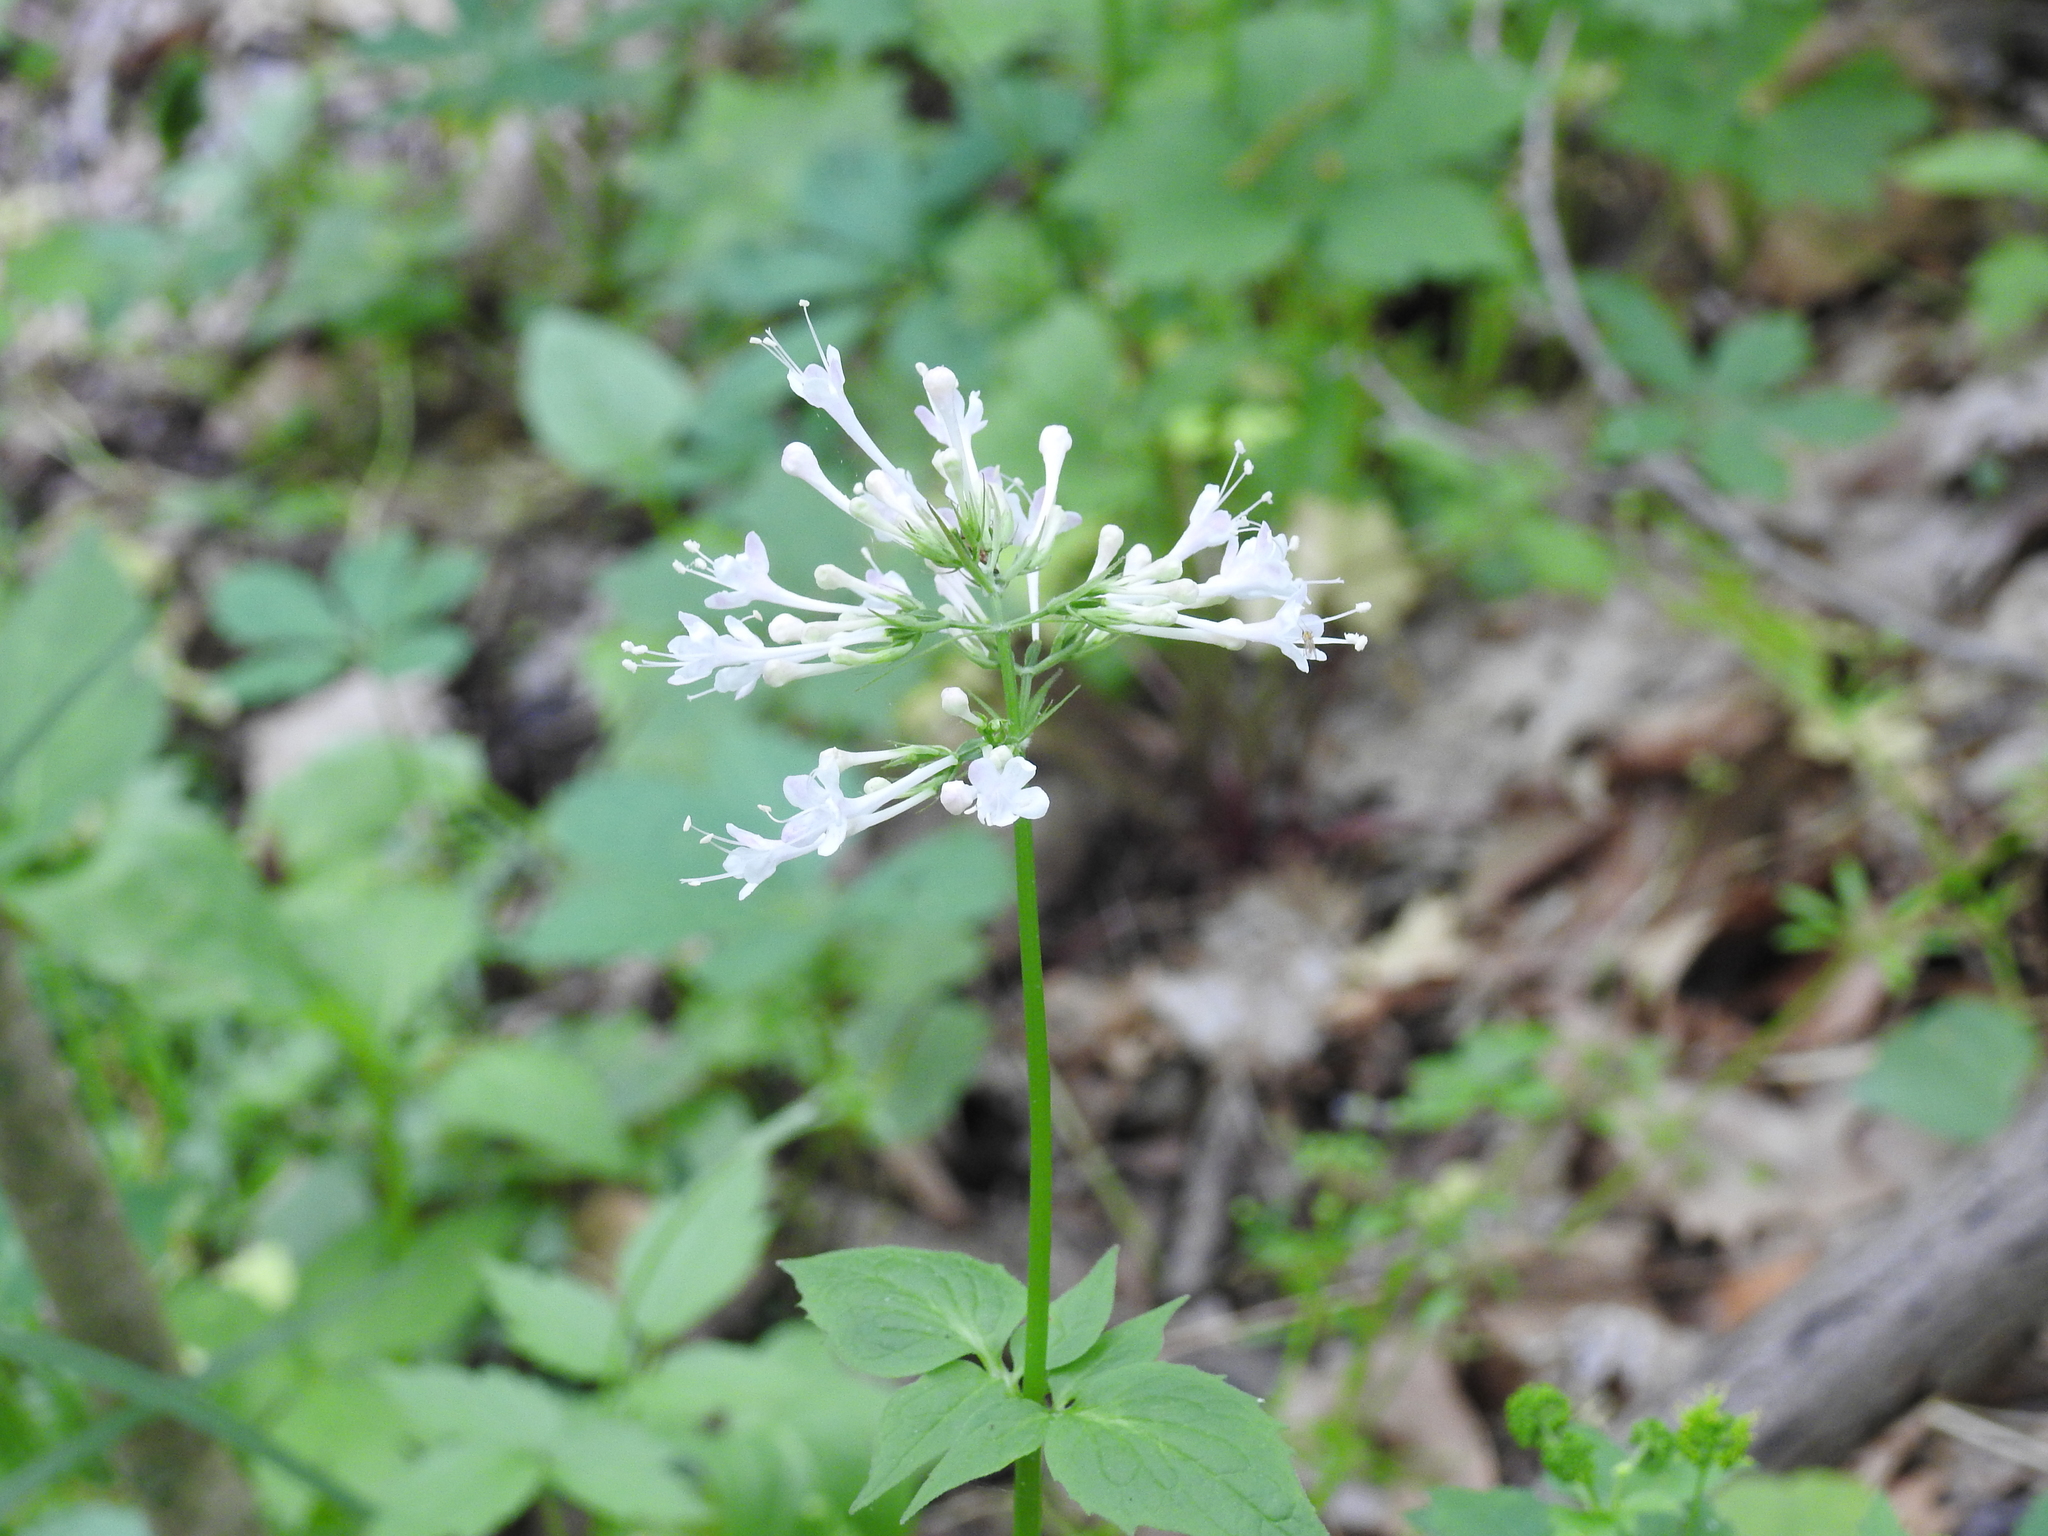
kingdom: Plantae
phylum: Tracheophyta
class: Magnoliopsida
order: Dipsacales
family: Caprifoliaceae
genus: Valeriana
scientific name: Valeriana pauciflora
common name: Long-tube valeriana
